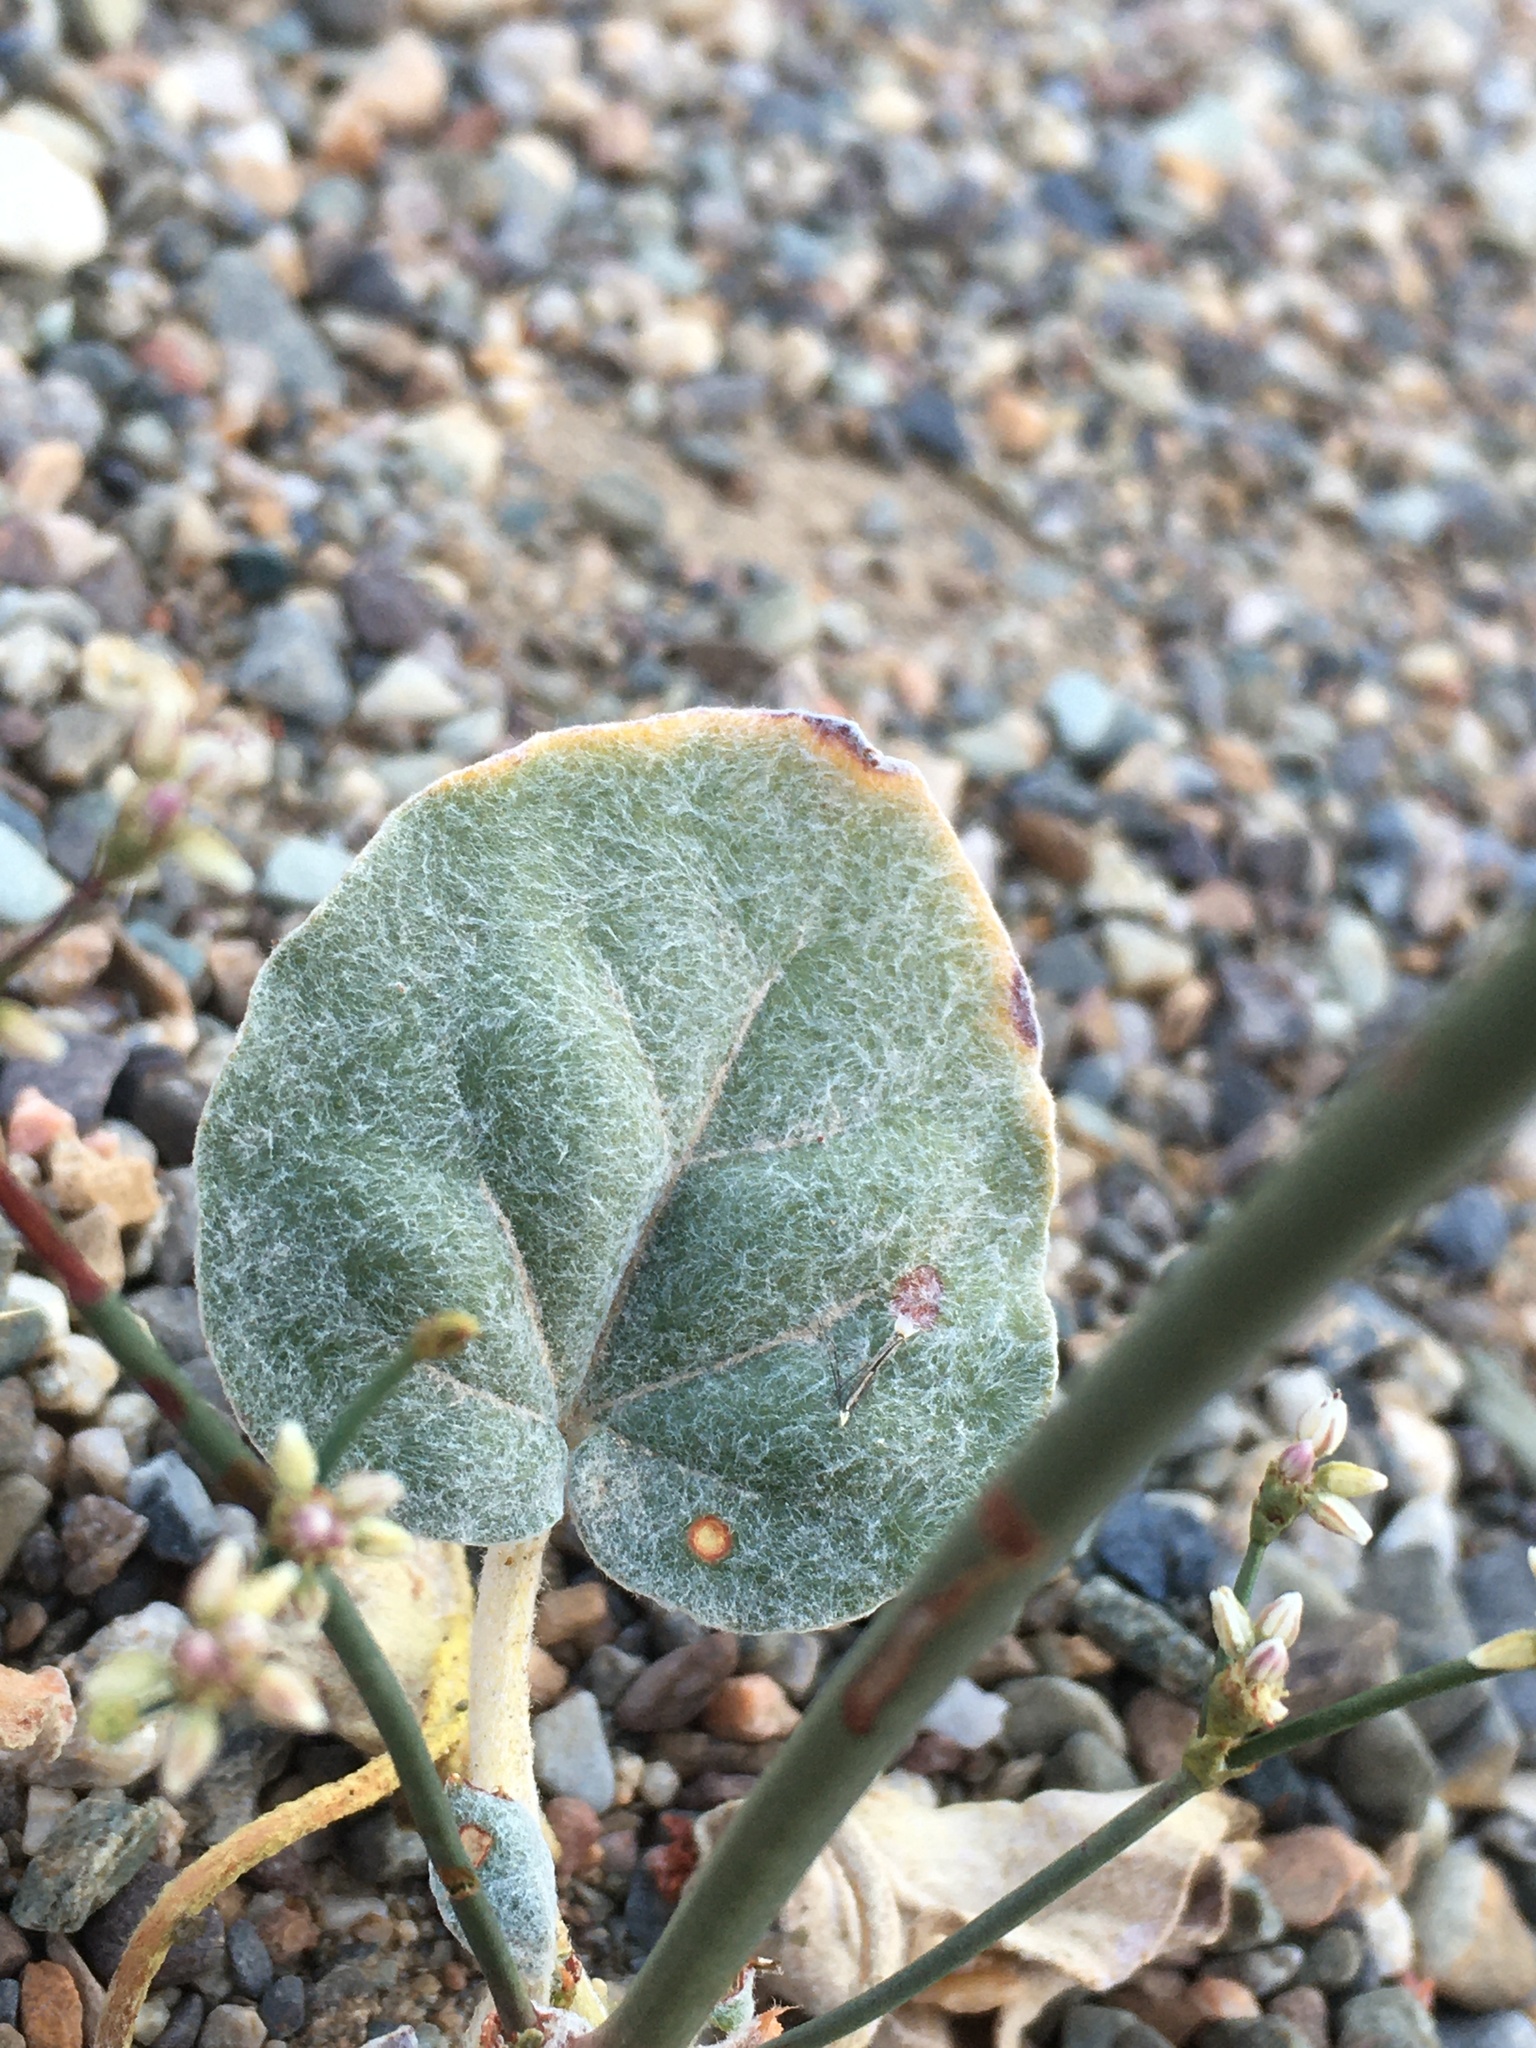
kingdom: Plantae
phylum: Tracheophyta
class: Magnoliopsida
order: Caryophyllales
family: Polygonaceae
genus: Eriogonum
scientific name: Eriogonum hoffmannii
